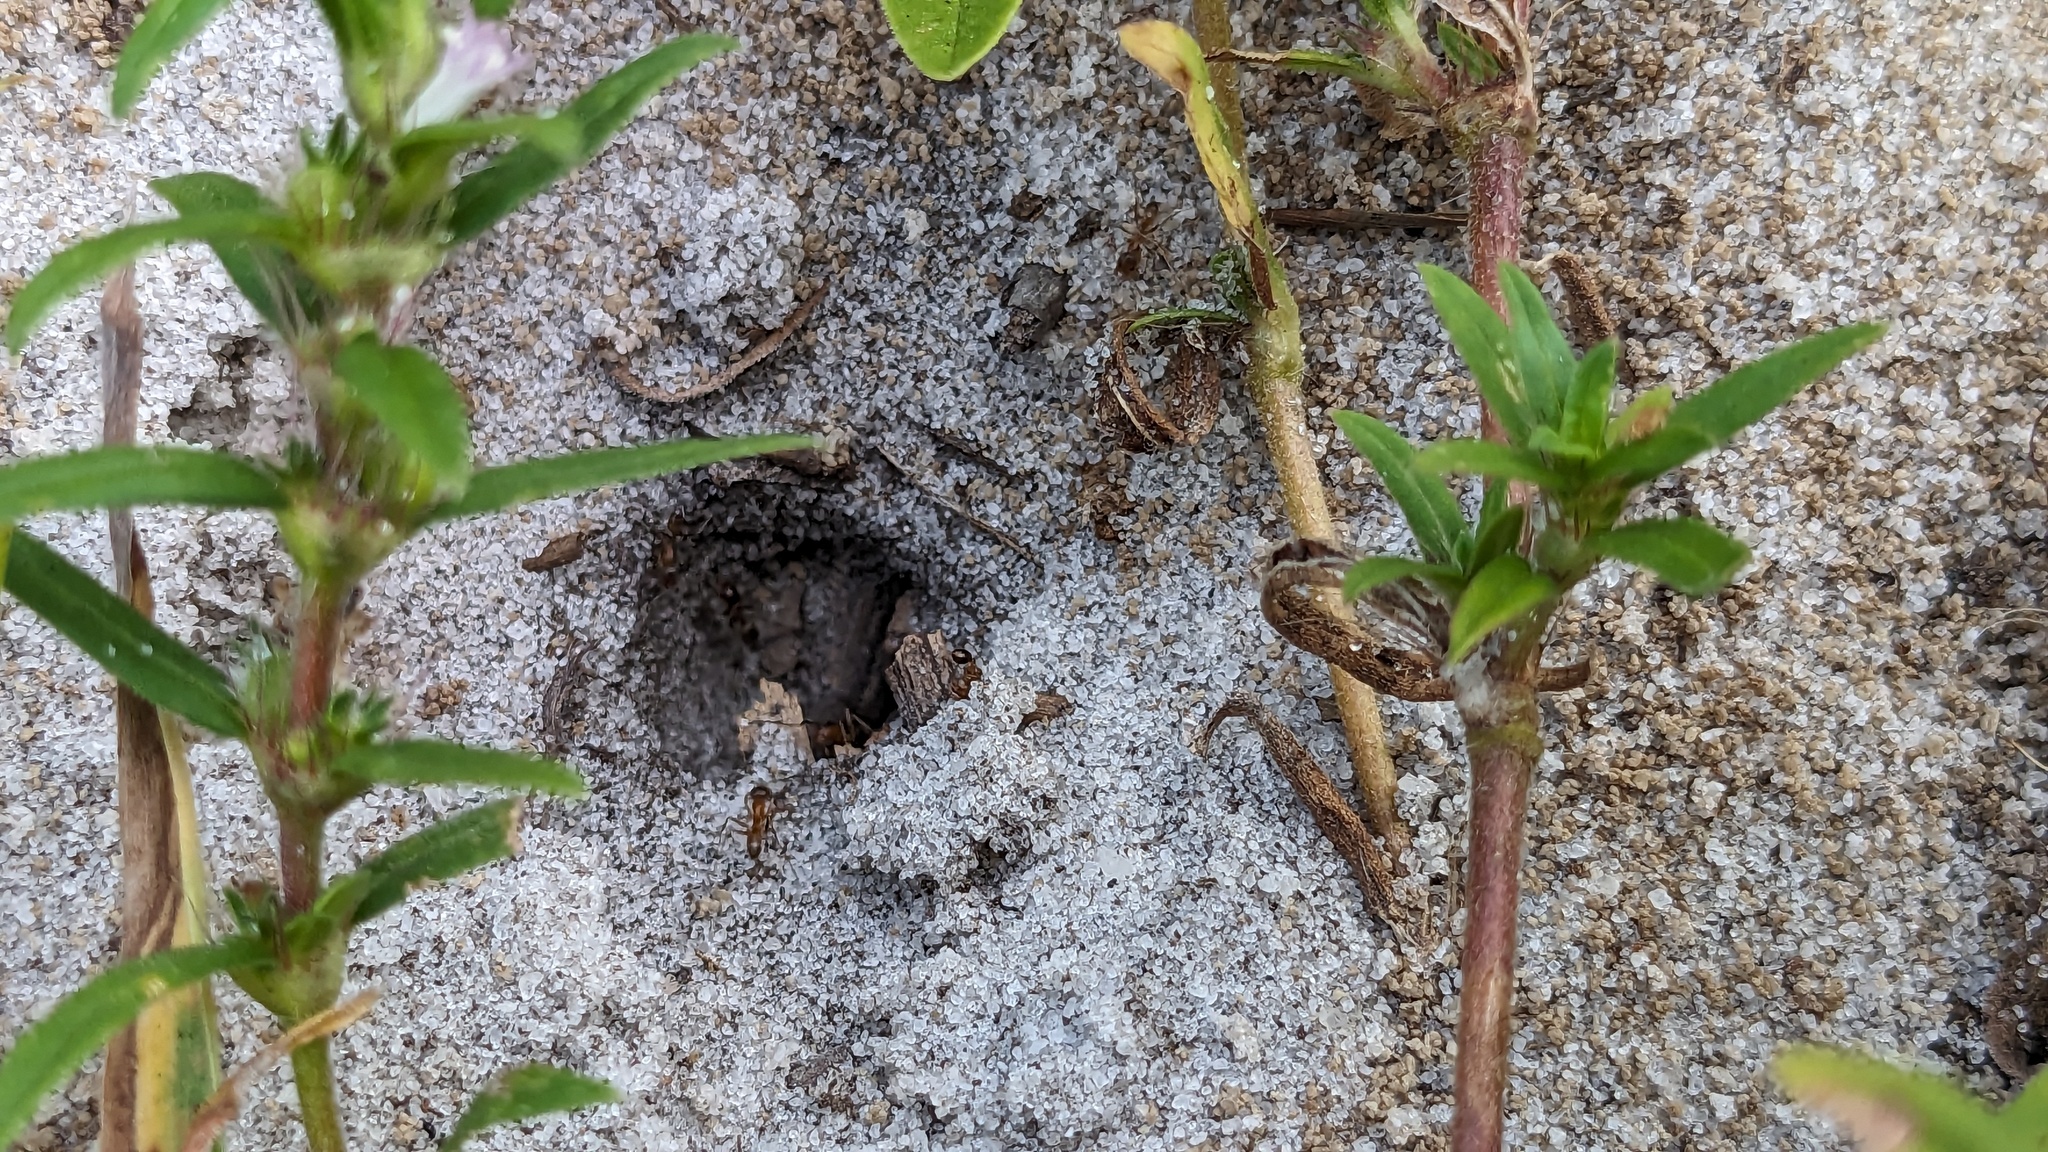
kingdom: Animalia
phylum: Arthropoda
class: Insecta
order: Hymenoptera
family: Formicidae
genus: Dorymyrmex
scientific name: Dorymyrmex bureni
